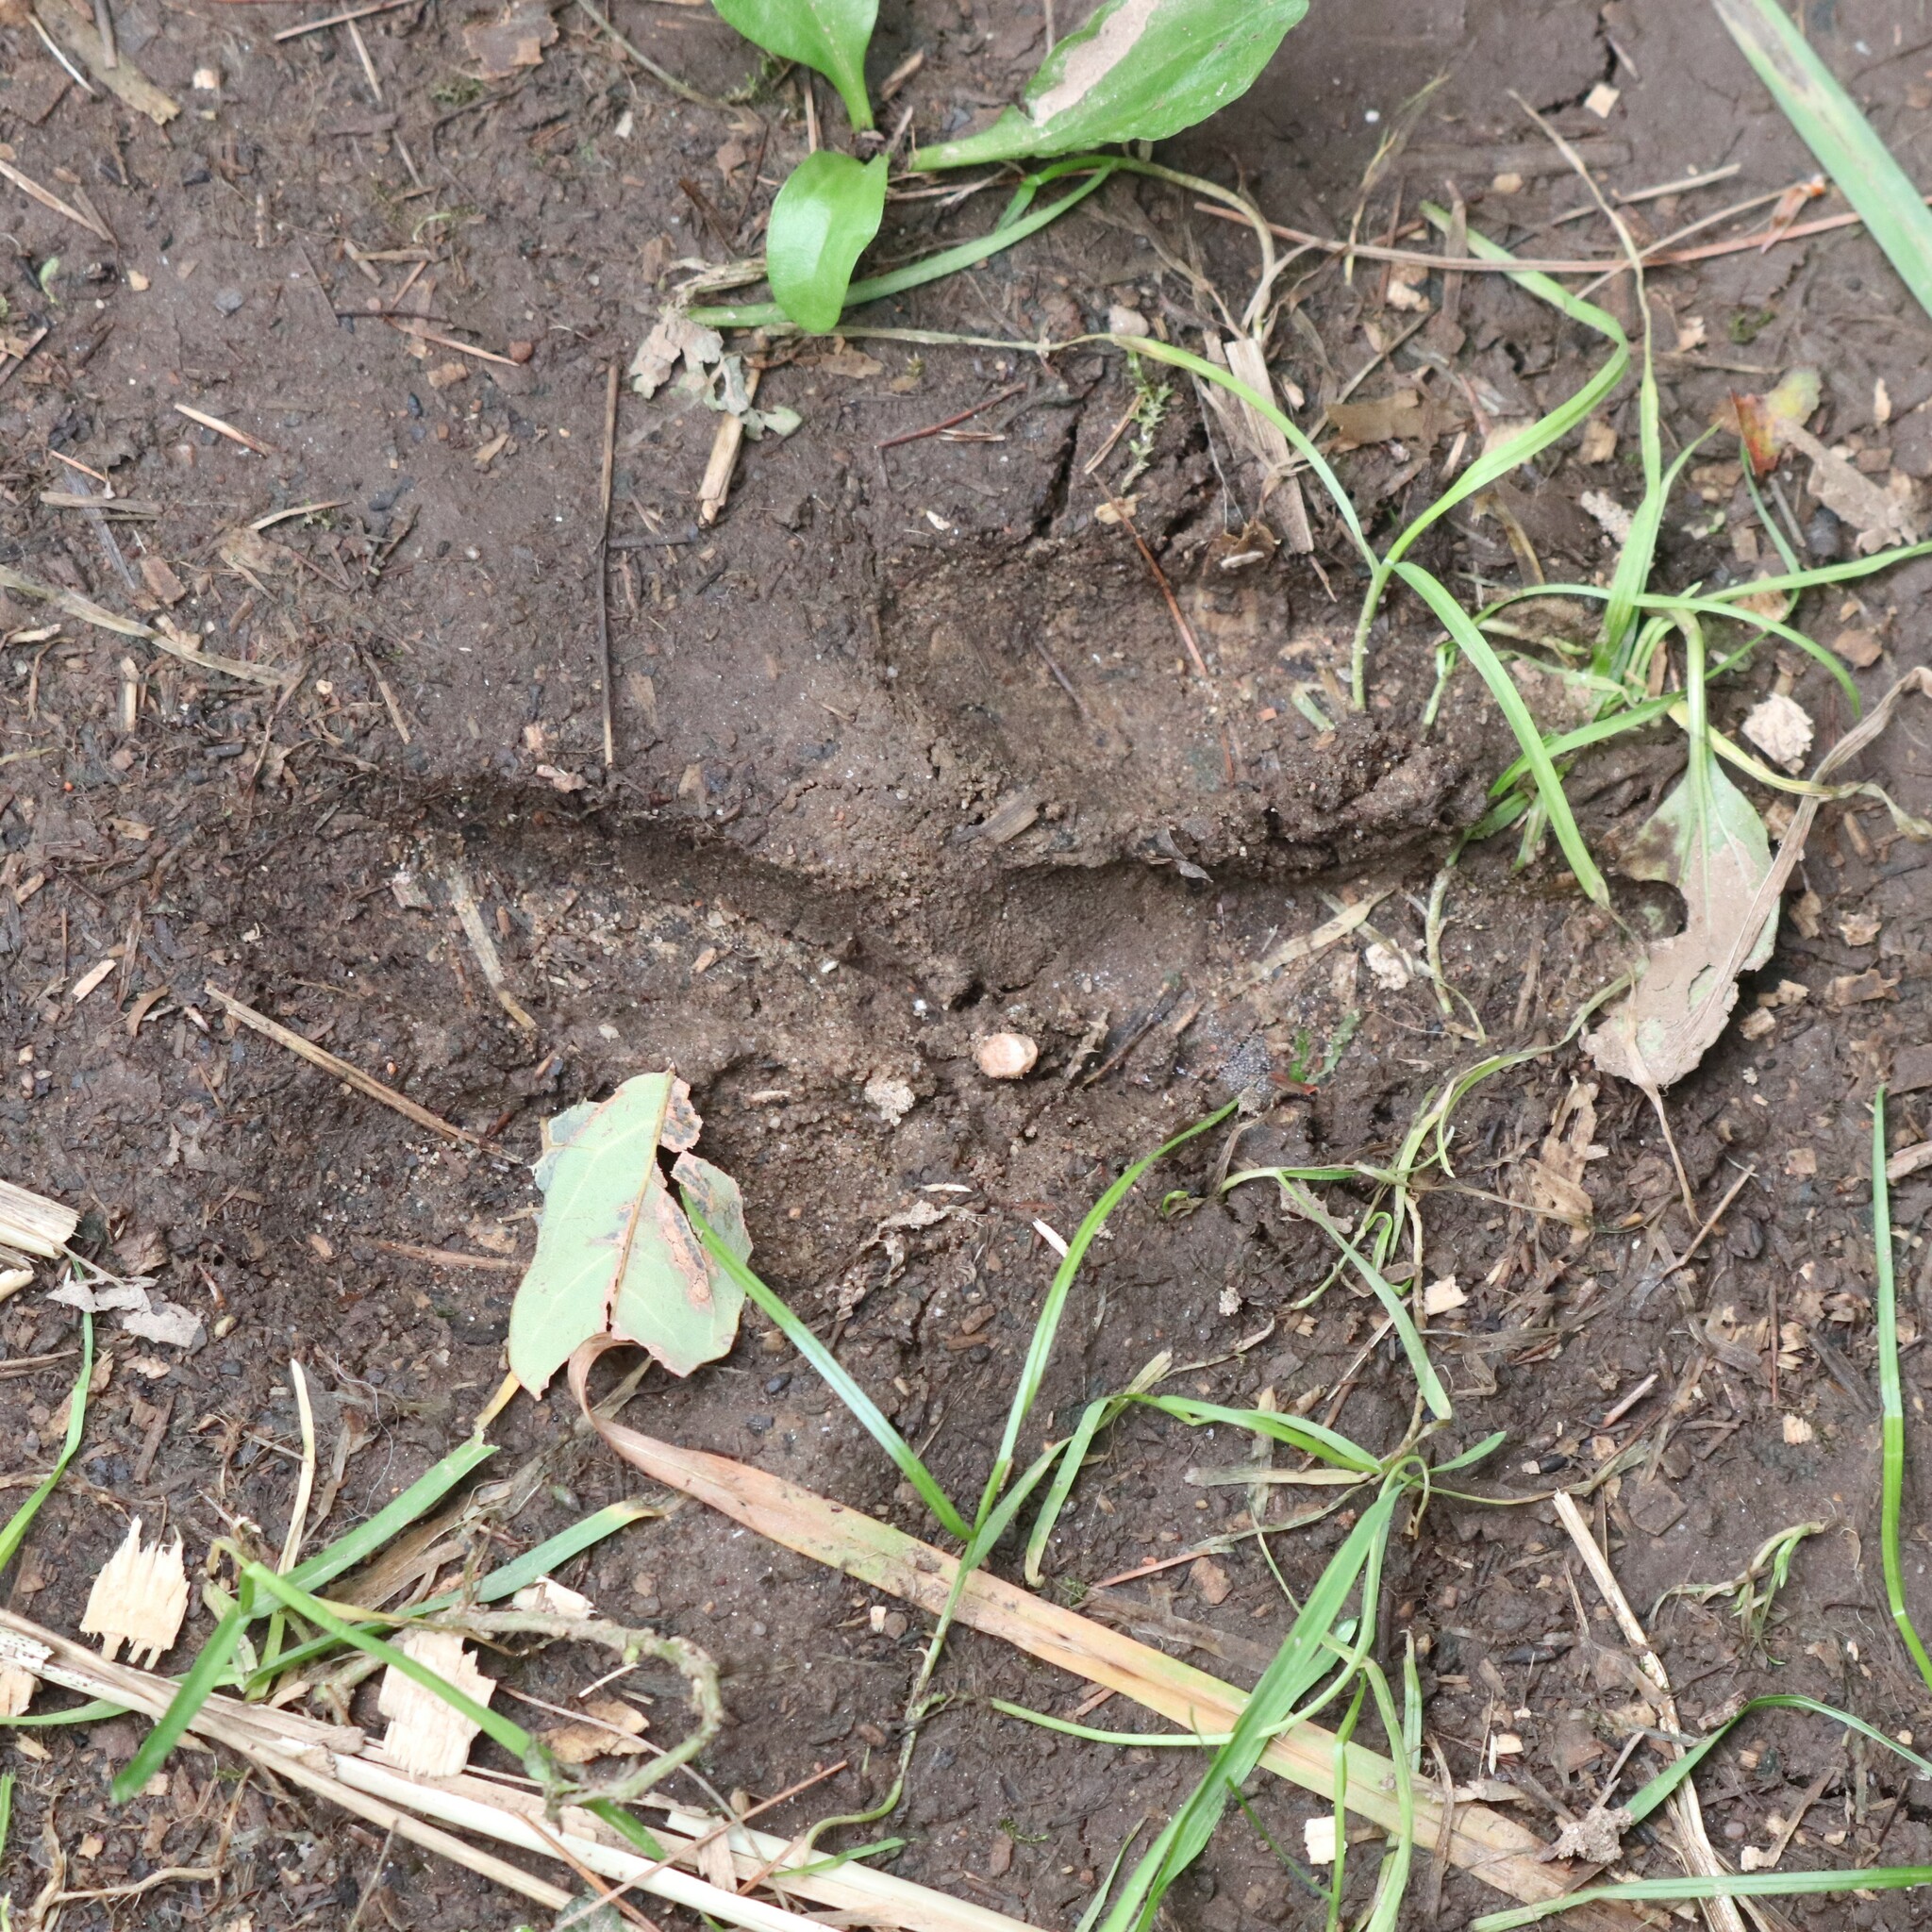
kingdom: Animalia
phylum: Chordata
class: Mammalia
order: Artiodactyla
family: Cervidae
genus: Odocoileus
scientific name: Odocoileus virginianus
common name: White-tailed deer
